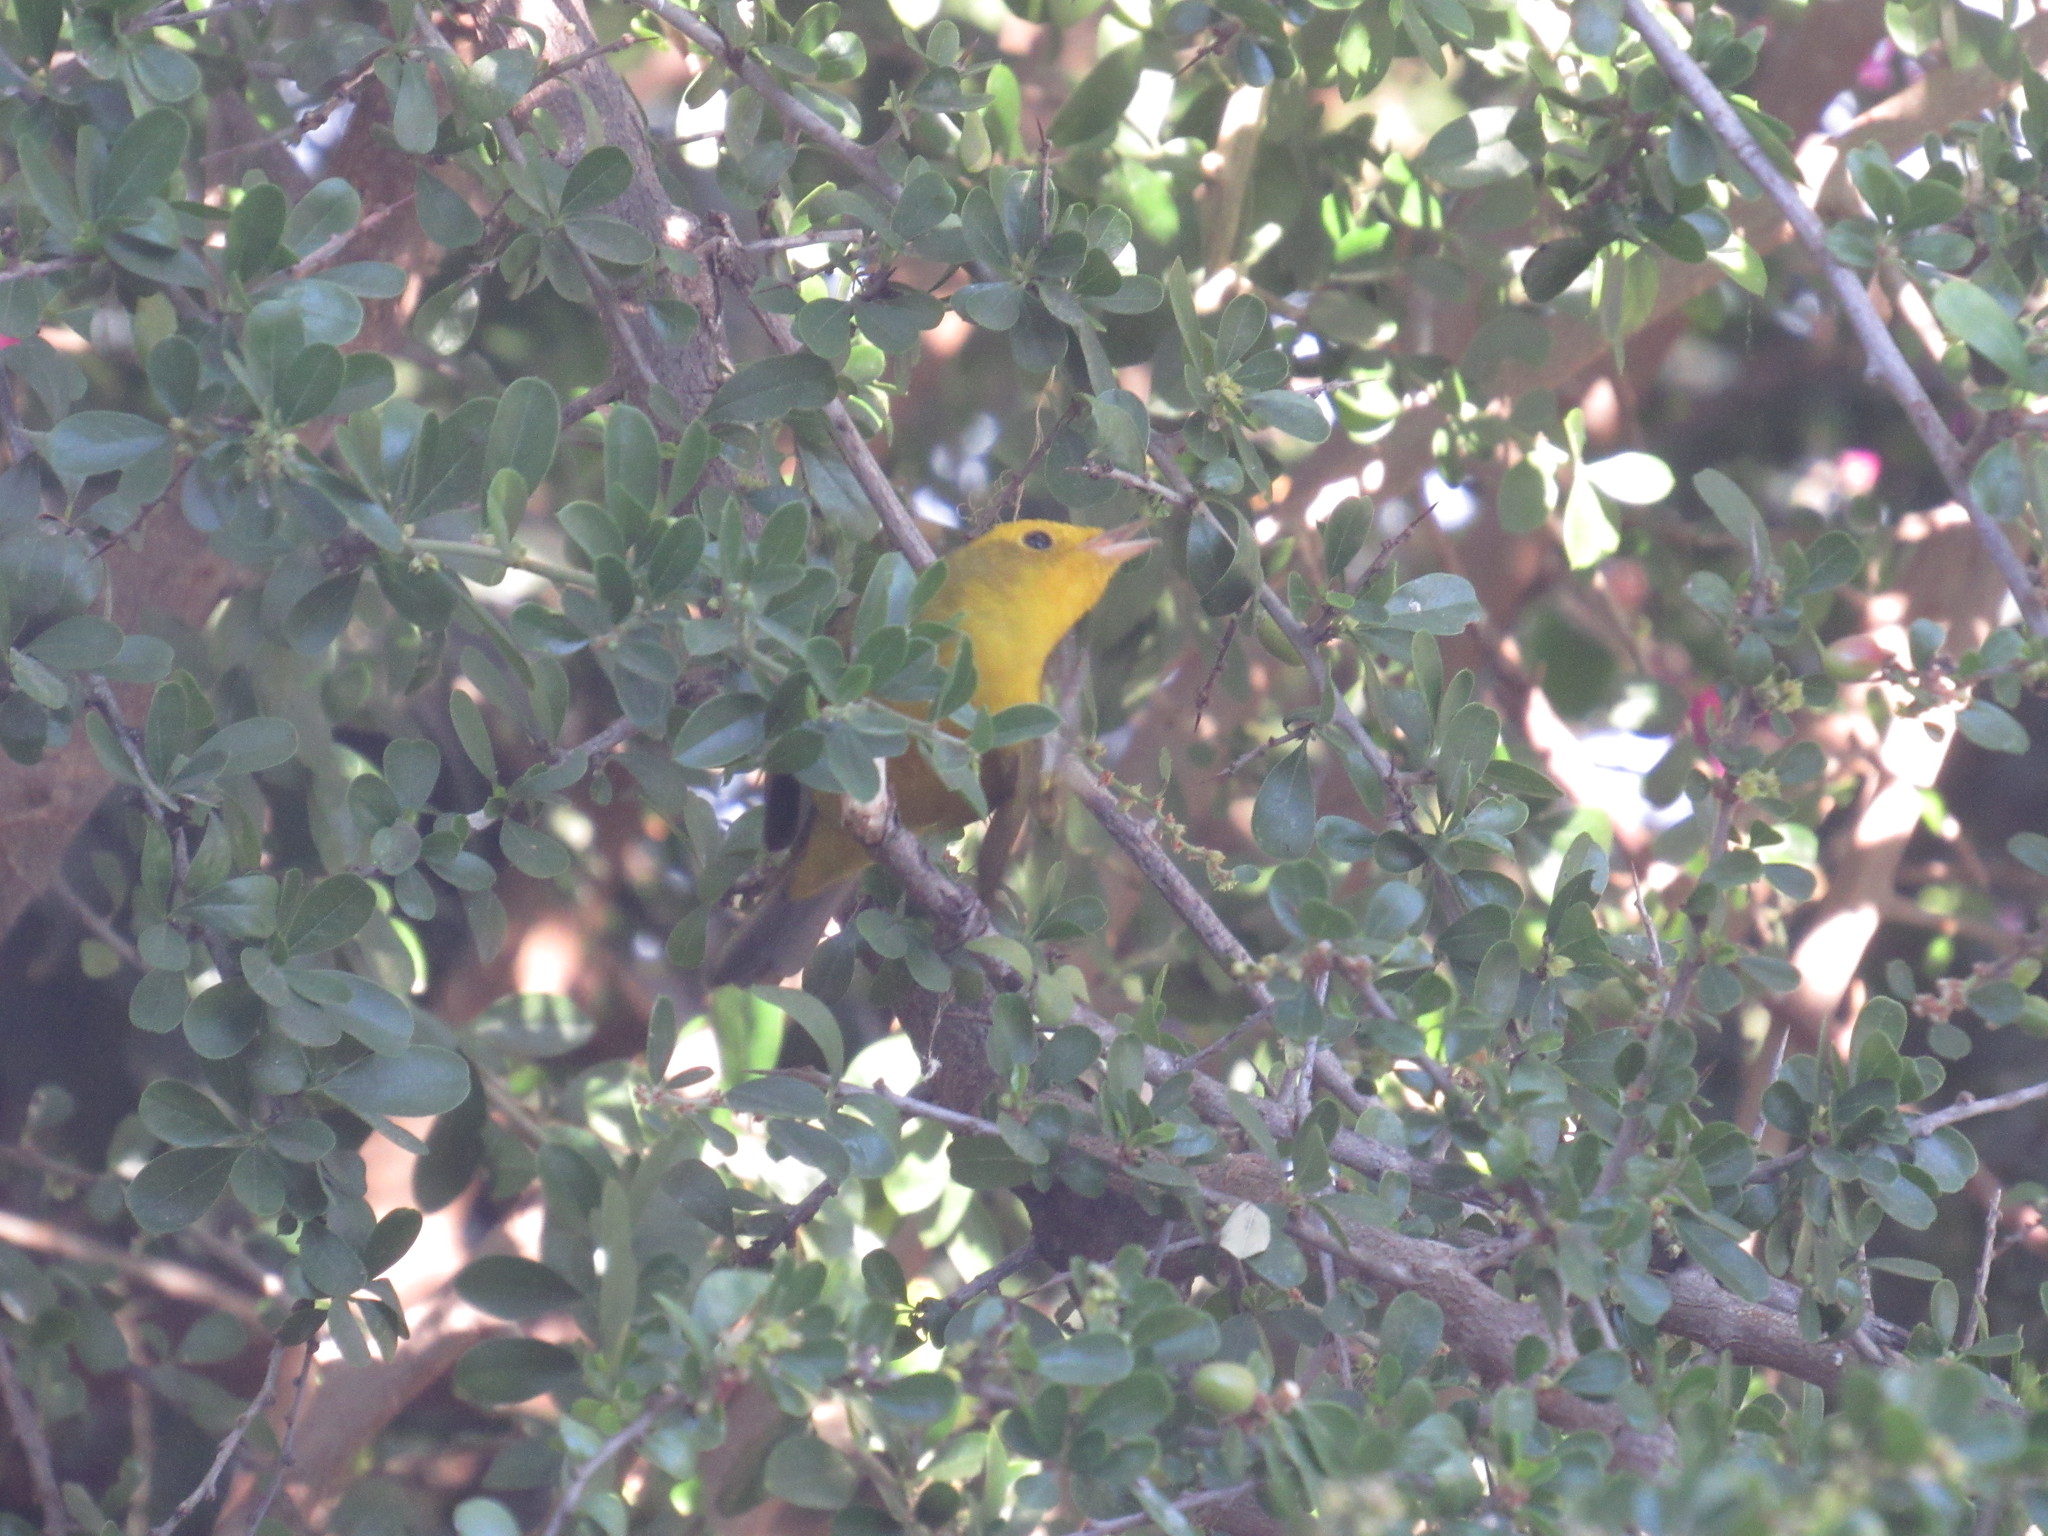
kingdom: Animalia
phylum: Chordata
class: Aves
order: Passeriformes
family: Parulidae
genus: Cardellina
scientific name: Cardellina pusilla
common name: Wilson's warbler
